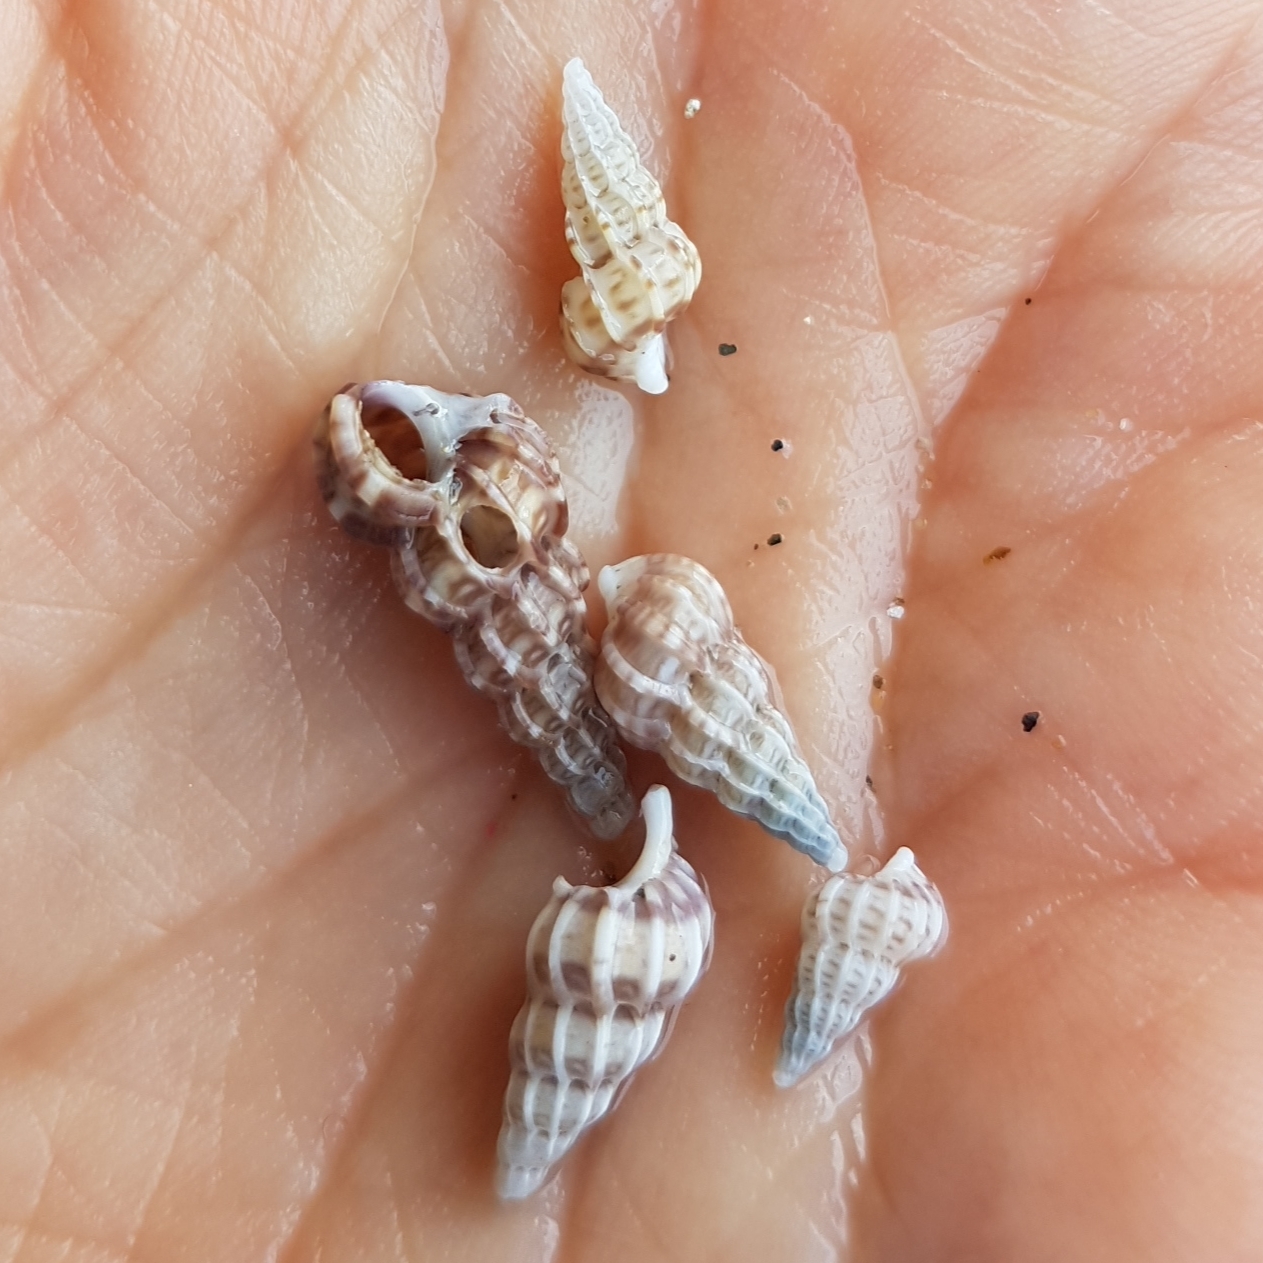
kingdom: Animalia
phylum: Mollusca
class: Gastropoda
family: Epitoniidae
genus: Epitonium
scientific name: Epitonium clathrus
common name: Common wentletrap
